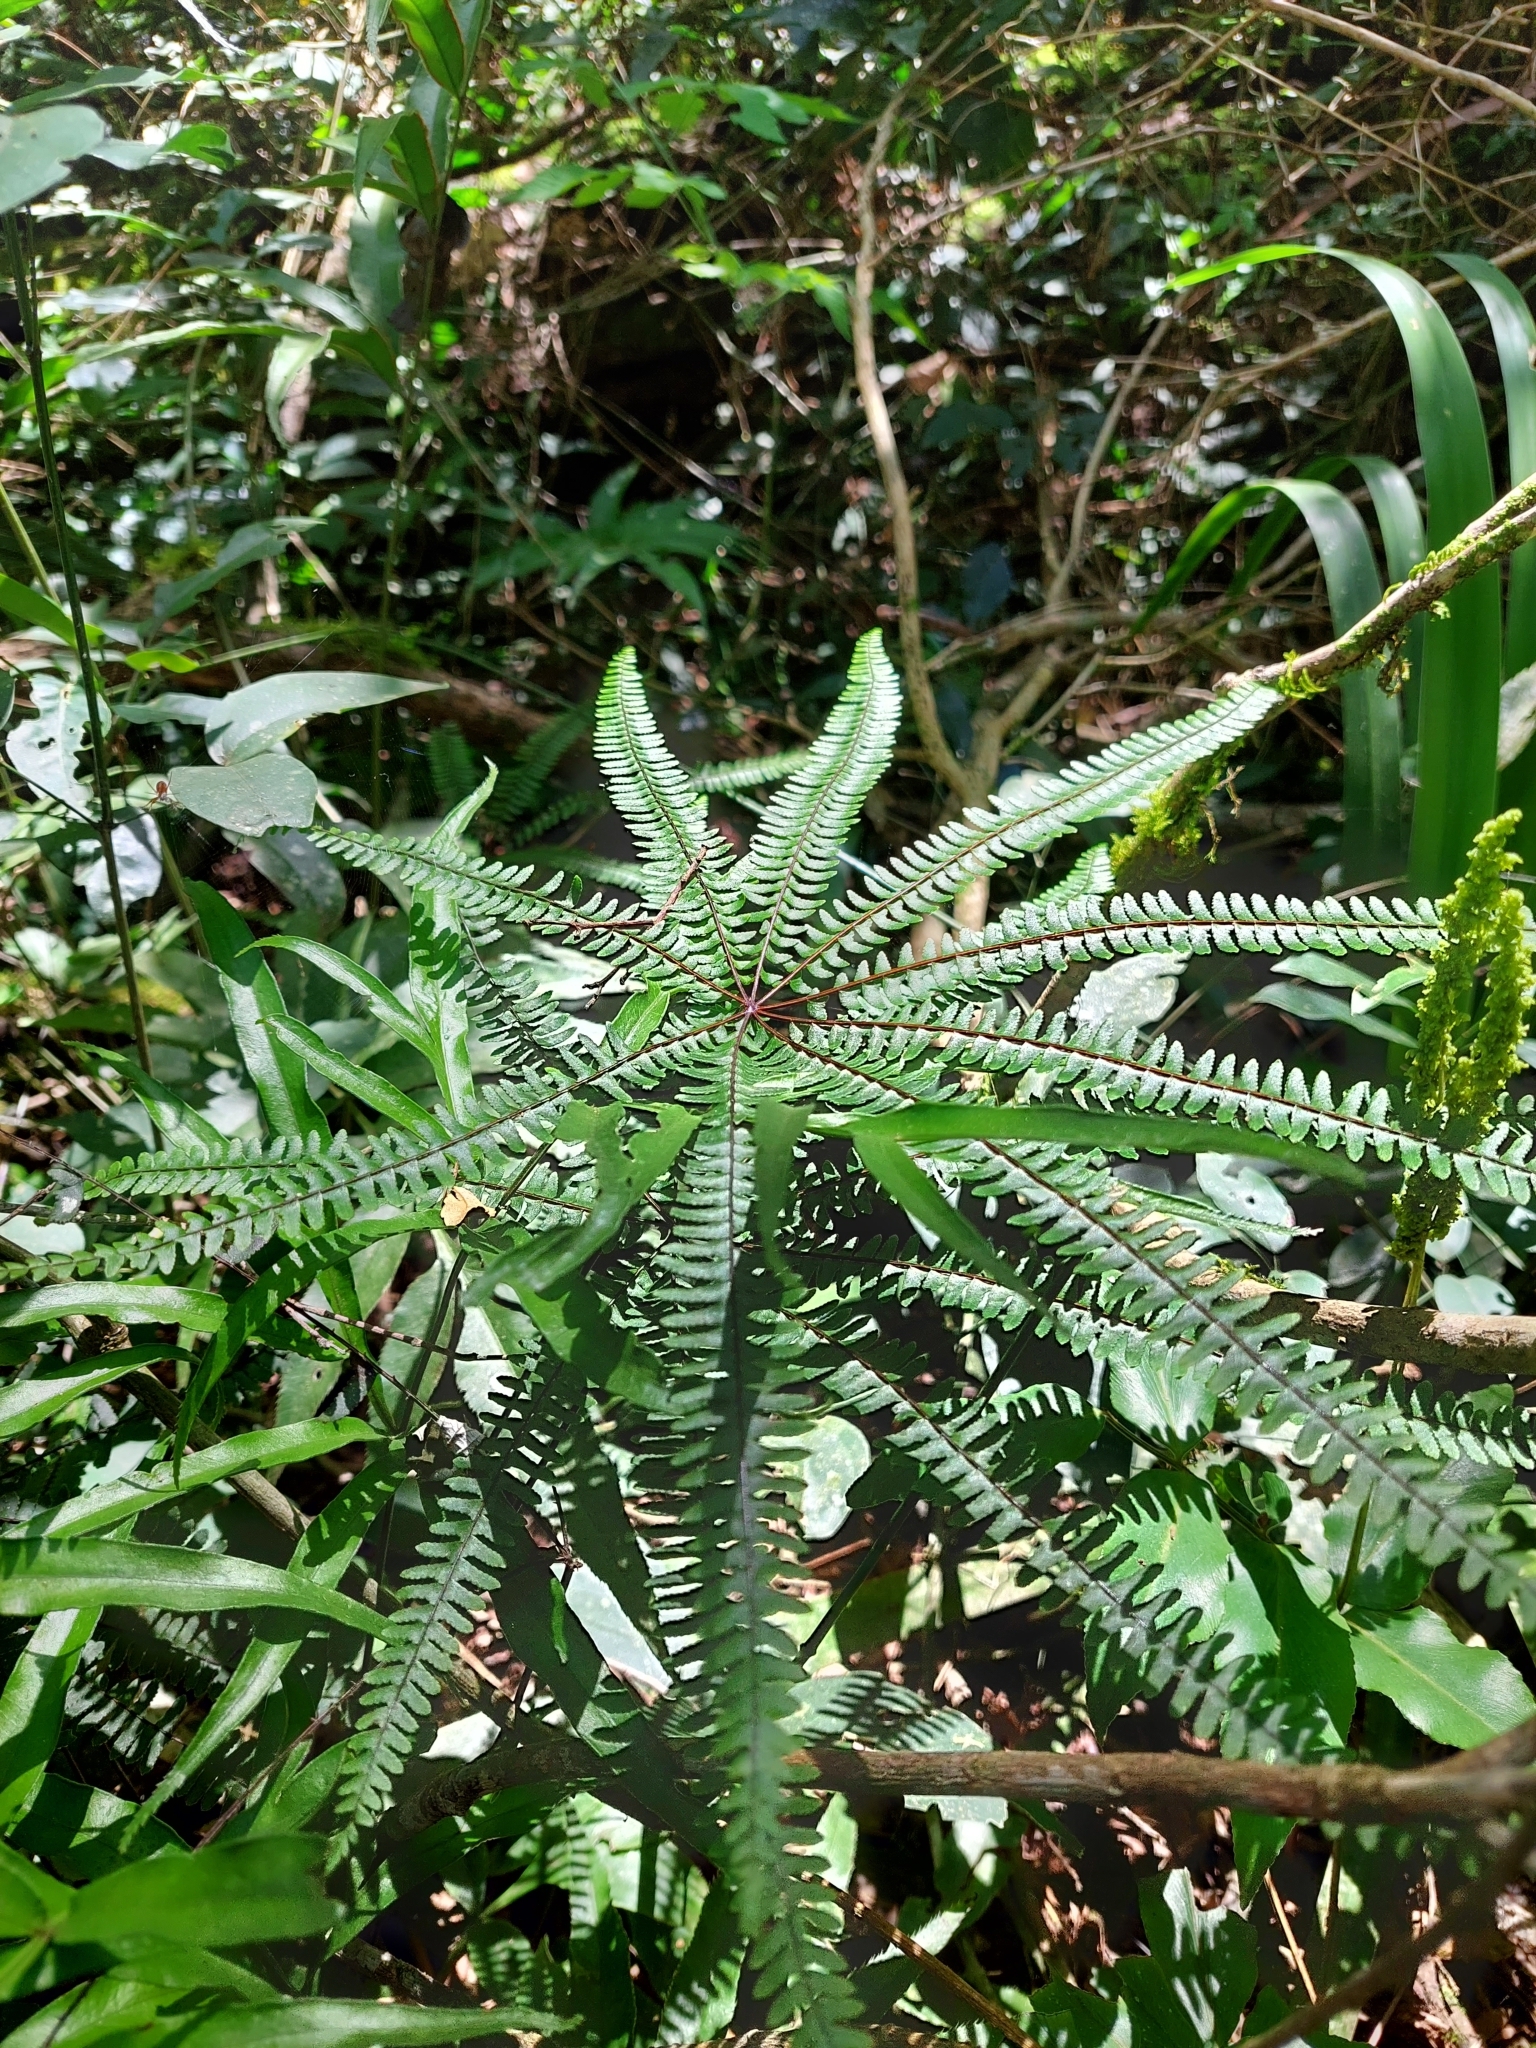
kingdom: Plantae
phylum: Tracheophyta
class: Polypodiopsida
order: Polypodiales
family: Pteridaceae
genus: Adiantopsis
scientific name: Adiantopsis radiata
